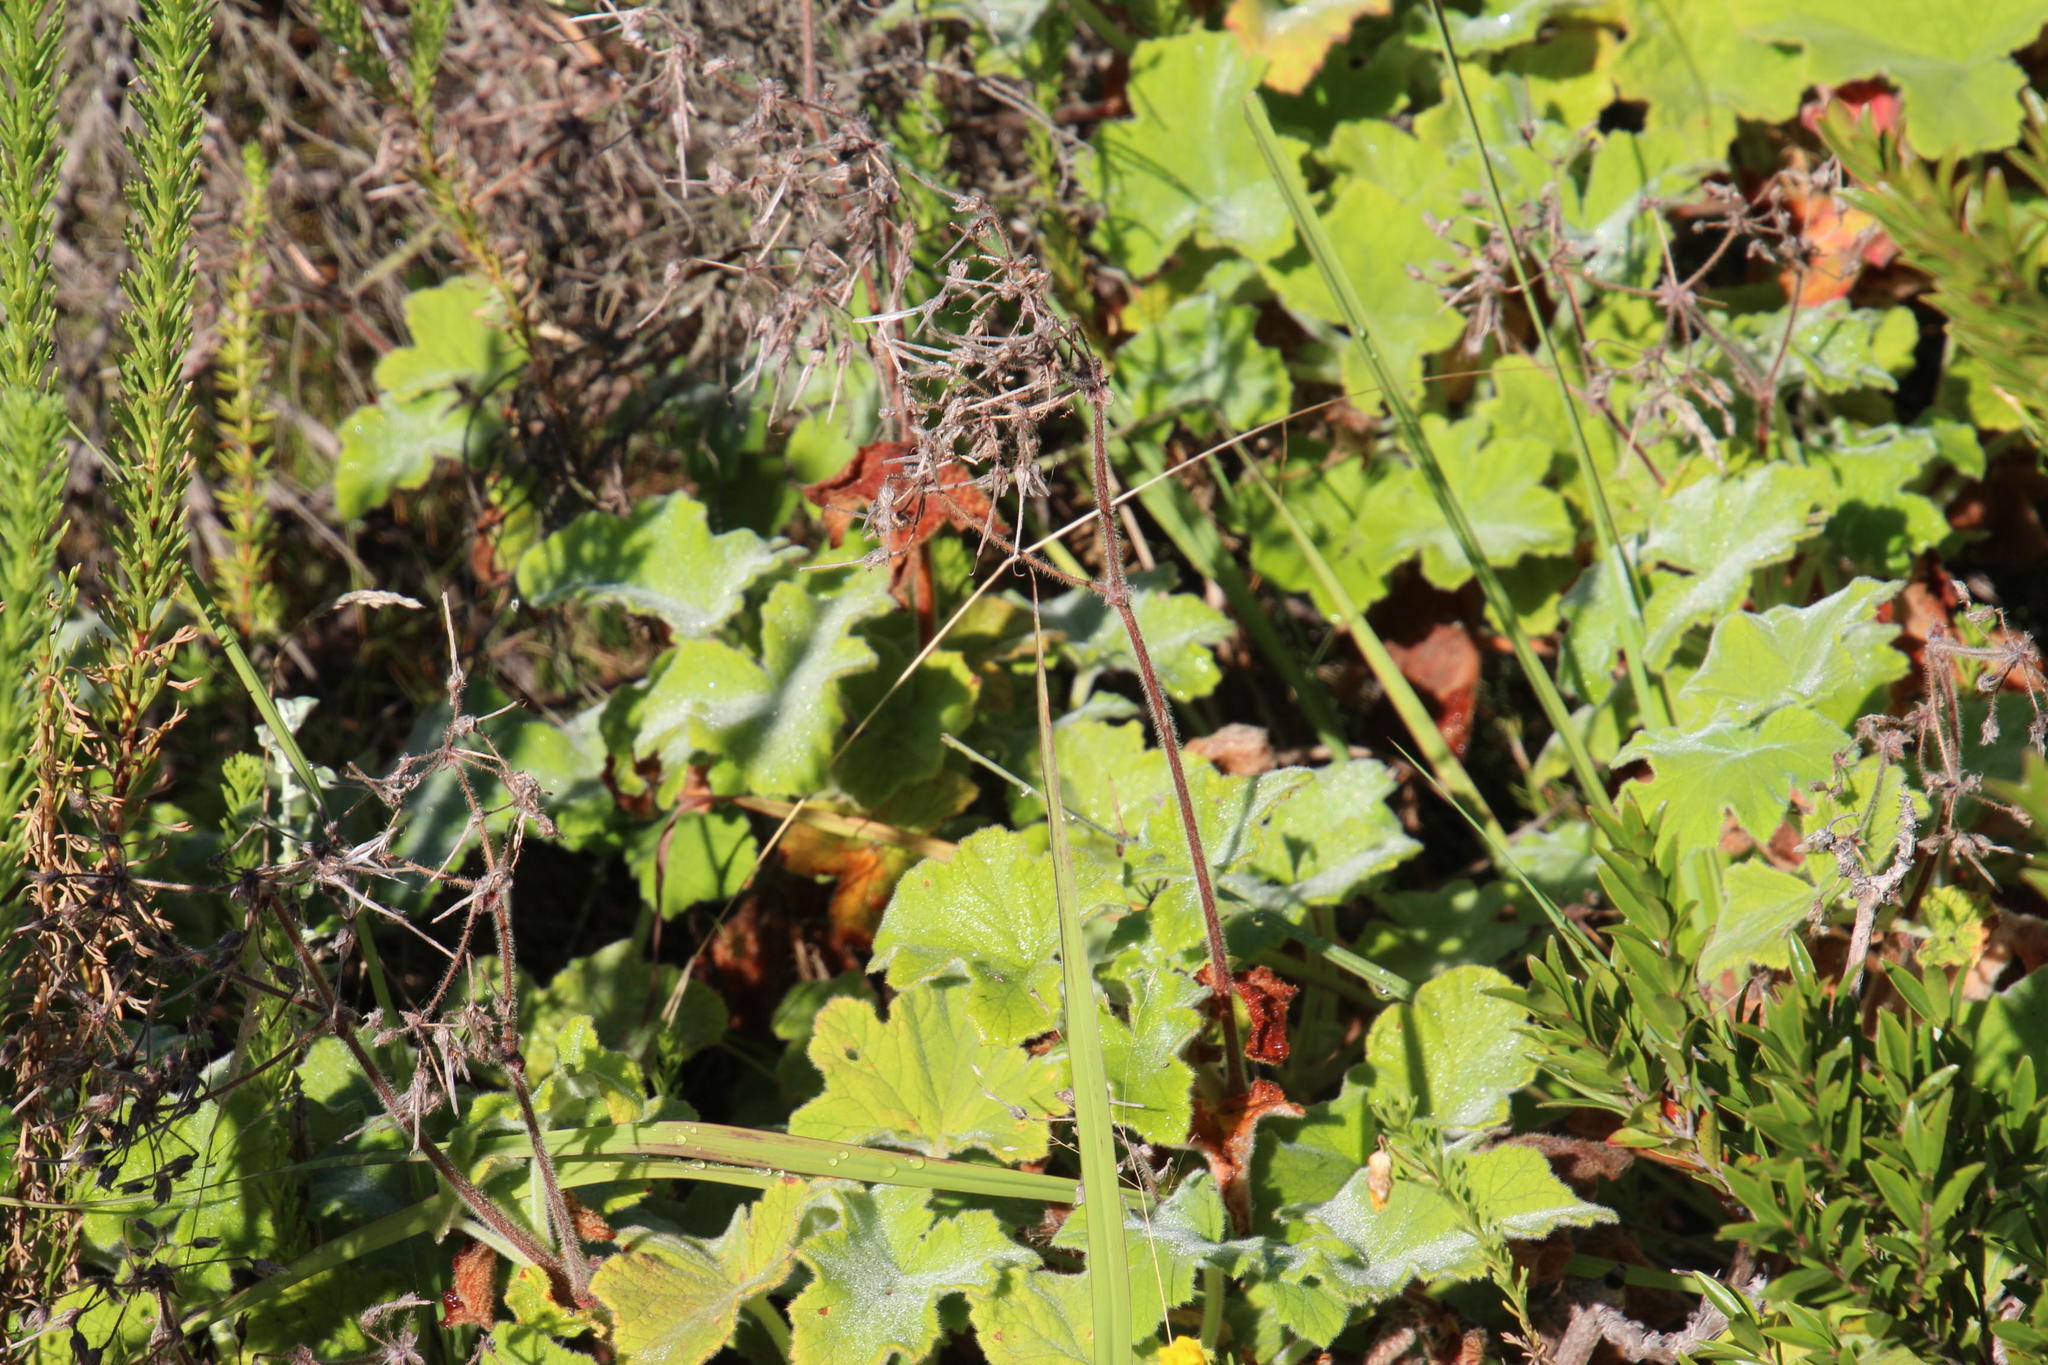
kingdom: Plantae
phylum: Tracheophyta
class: Magnoliopsida
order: Geraniales
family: Geraniaceae
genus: Pelargonium
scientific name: Pelargonium tomentosum
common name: Peppermint-scented geranium
